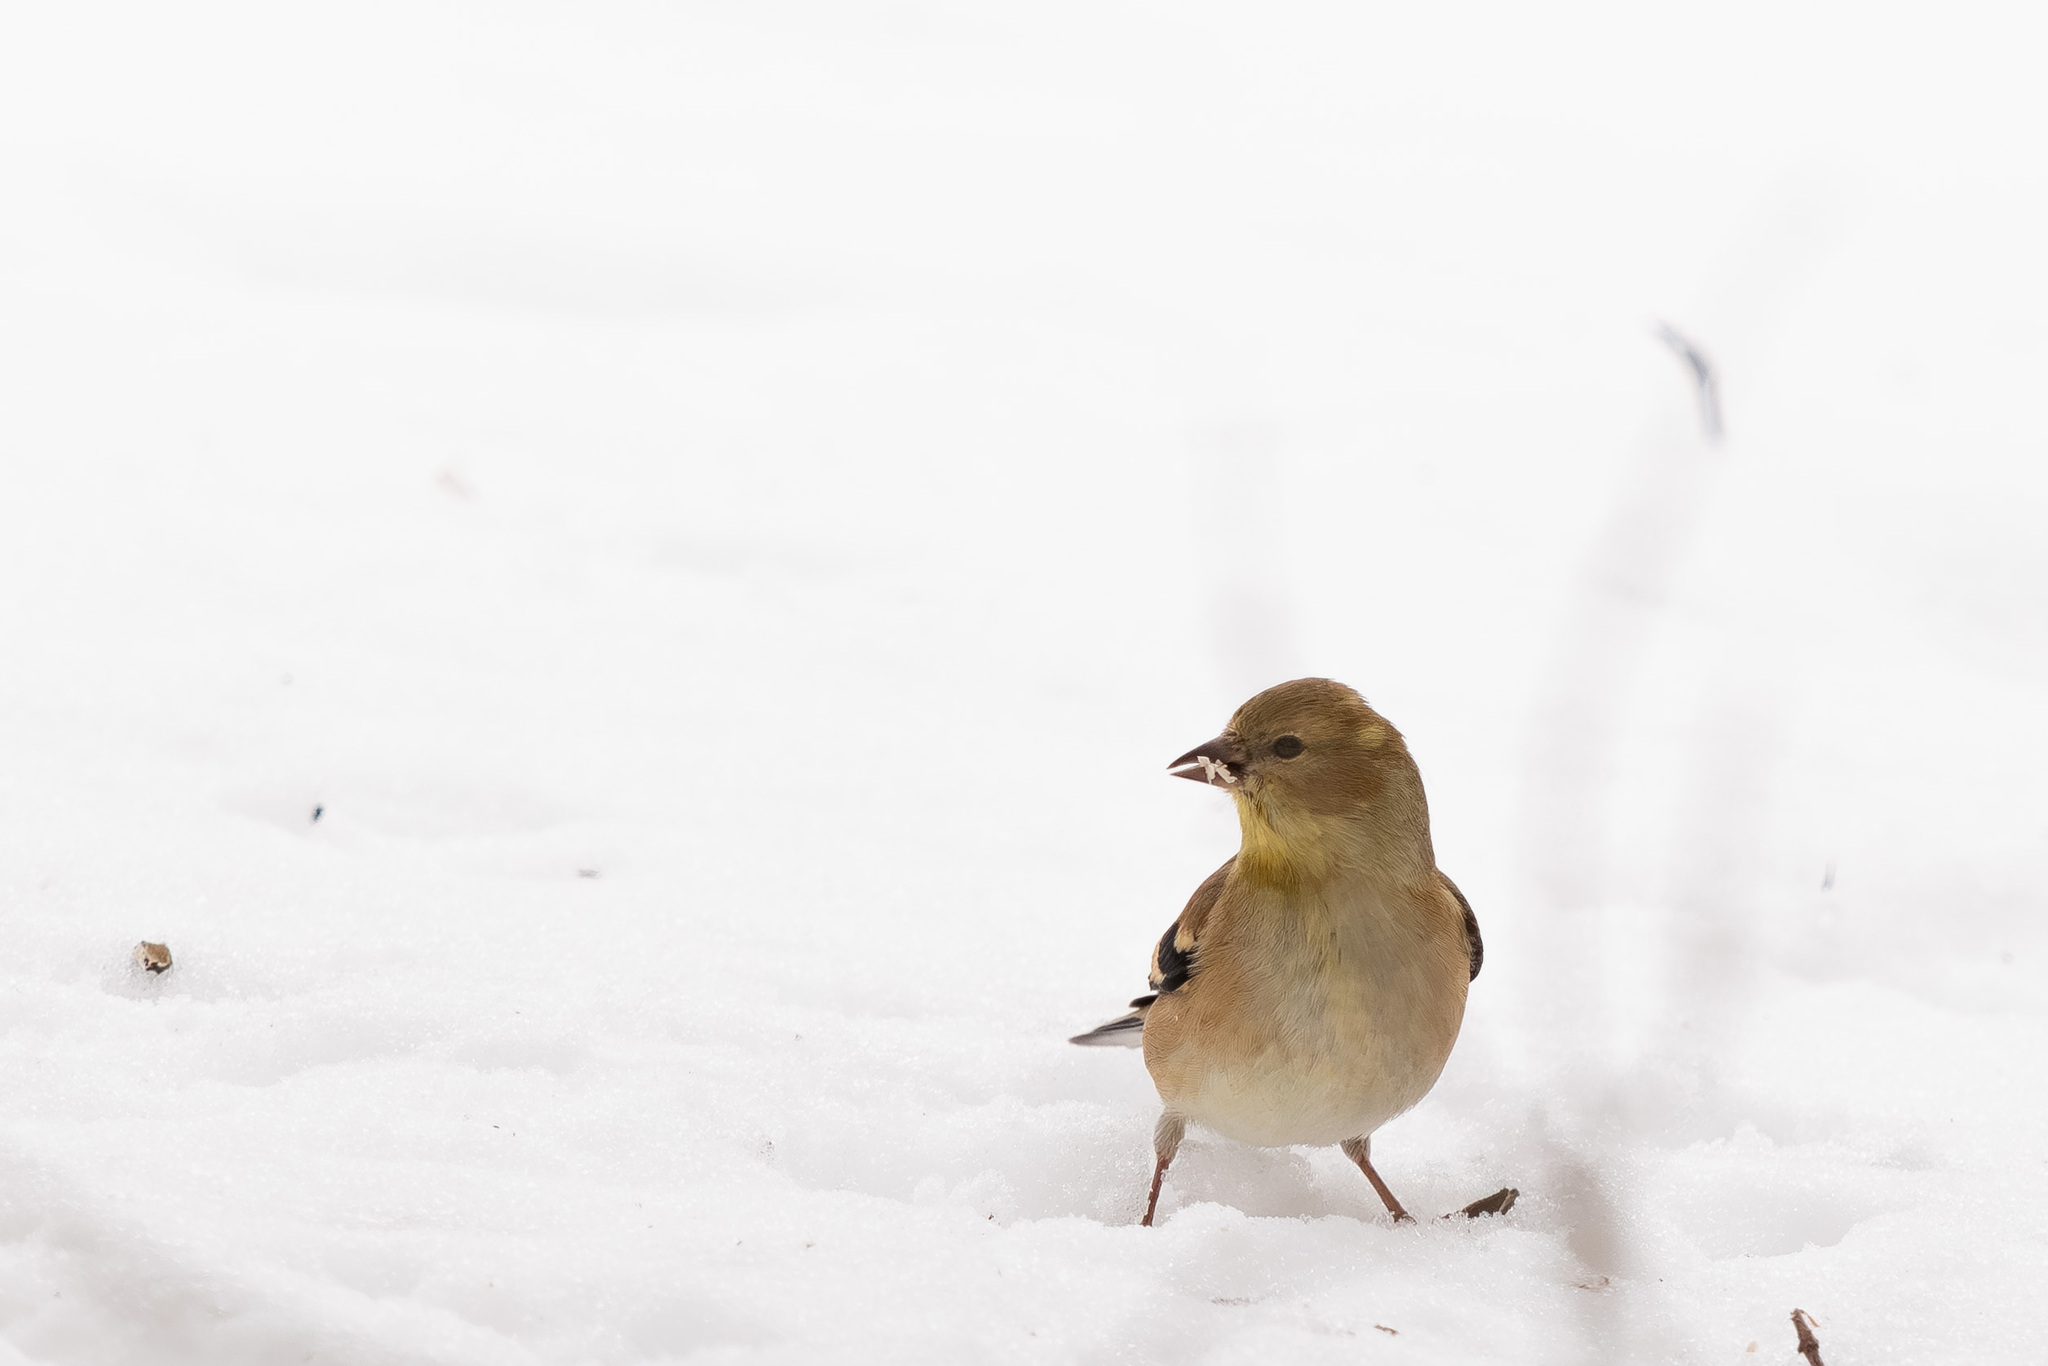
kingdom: Animalia
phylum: Chordata
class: Aves
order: Passeriformes
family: Fringillidae
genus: Spinus
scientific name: Spinus tristis
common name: American goldfinch
